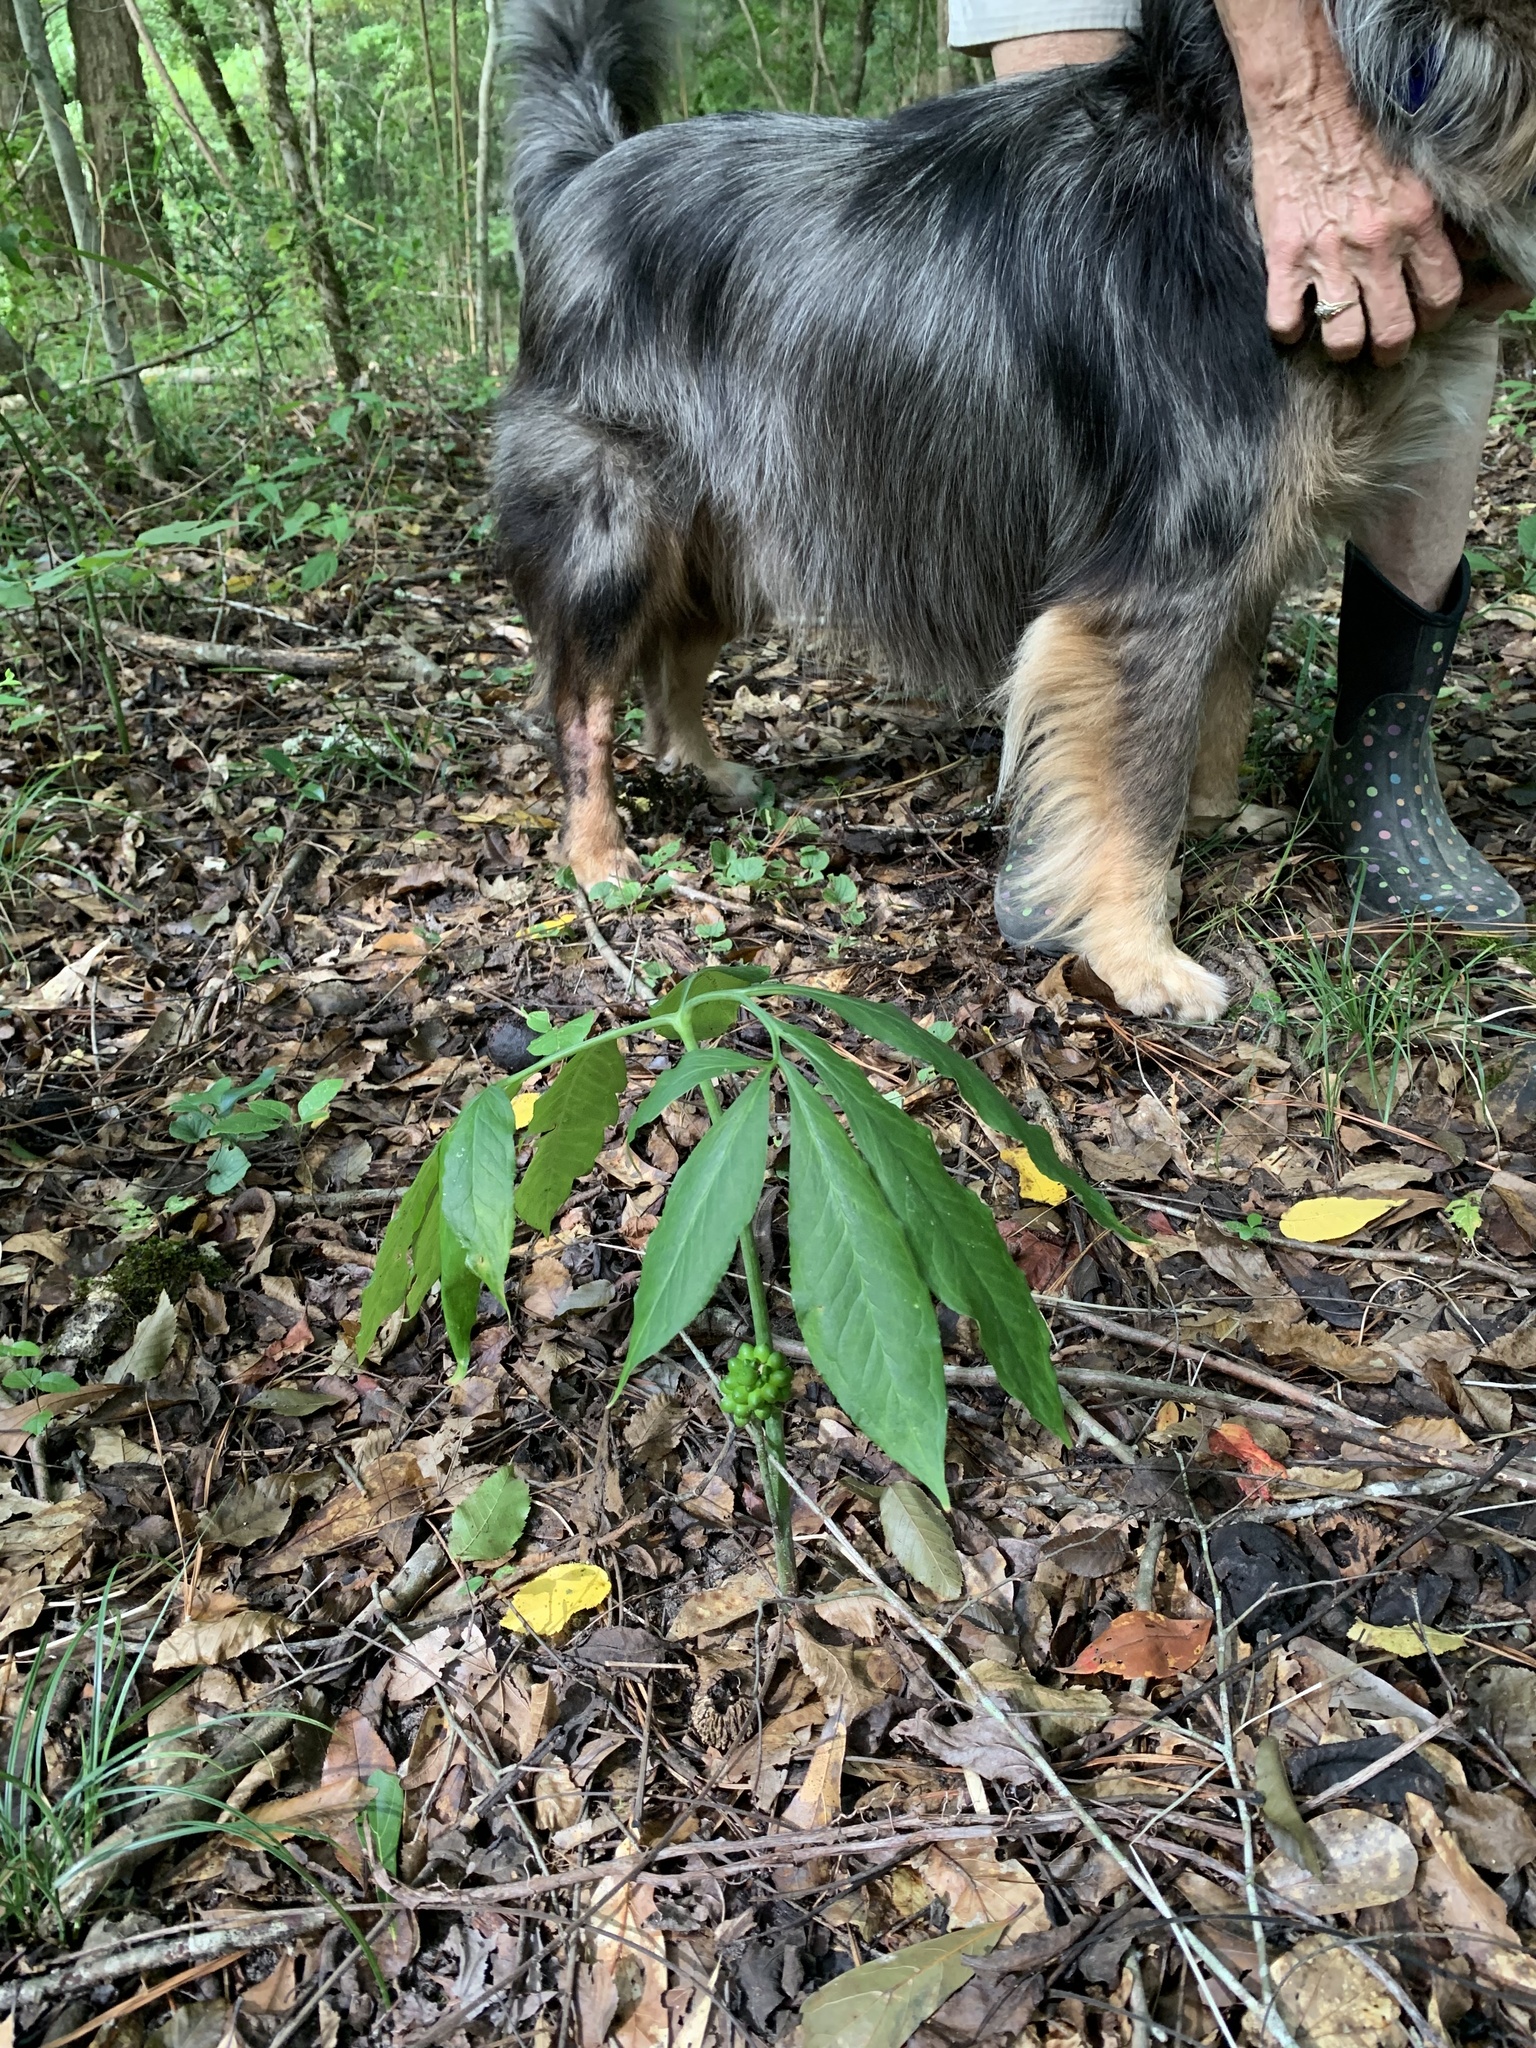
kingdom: Plantae
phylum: Tracheophyta
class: Liliopsida
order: Alismatales
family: Araceae
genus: Arisaema
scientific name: Arisaema dracontium
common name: Dragon-arum
